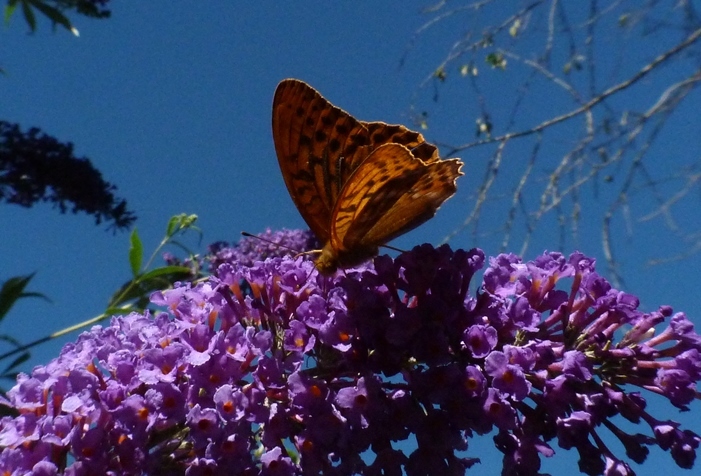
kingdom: Animalia
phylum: Arthropoda
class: Insecta
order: Lepidoptera
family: Nymphalidae
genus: Argynnis
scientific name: Argynnis paphia
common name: Silver-washed fritillary
